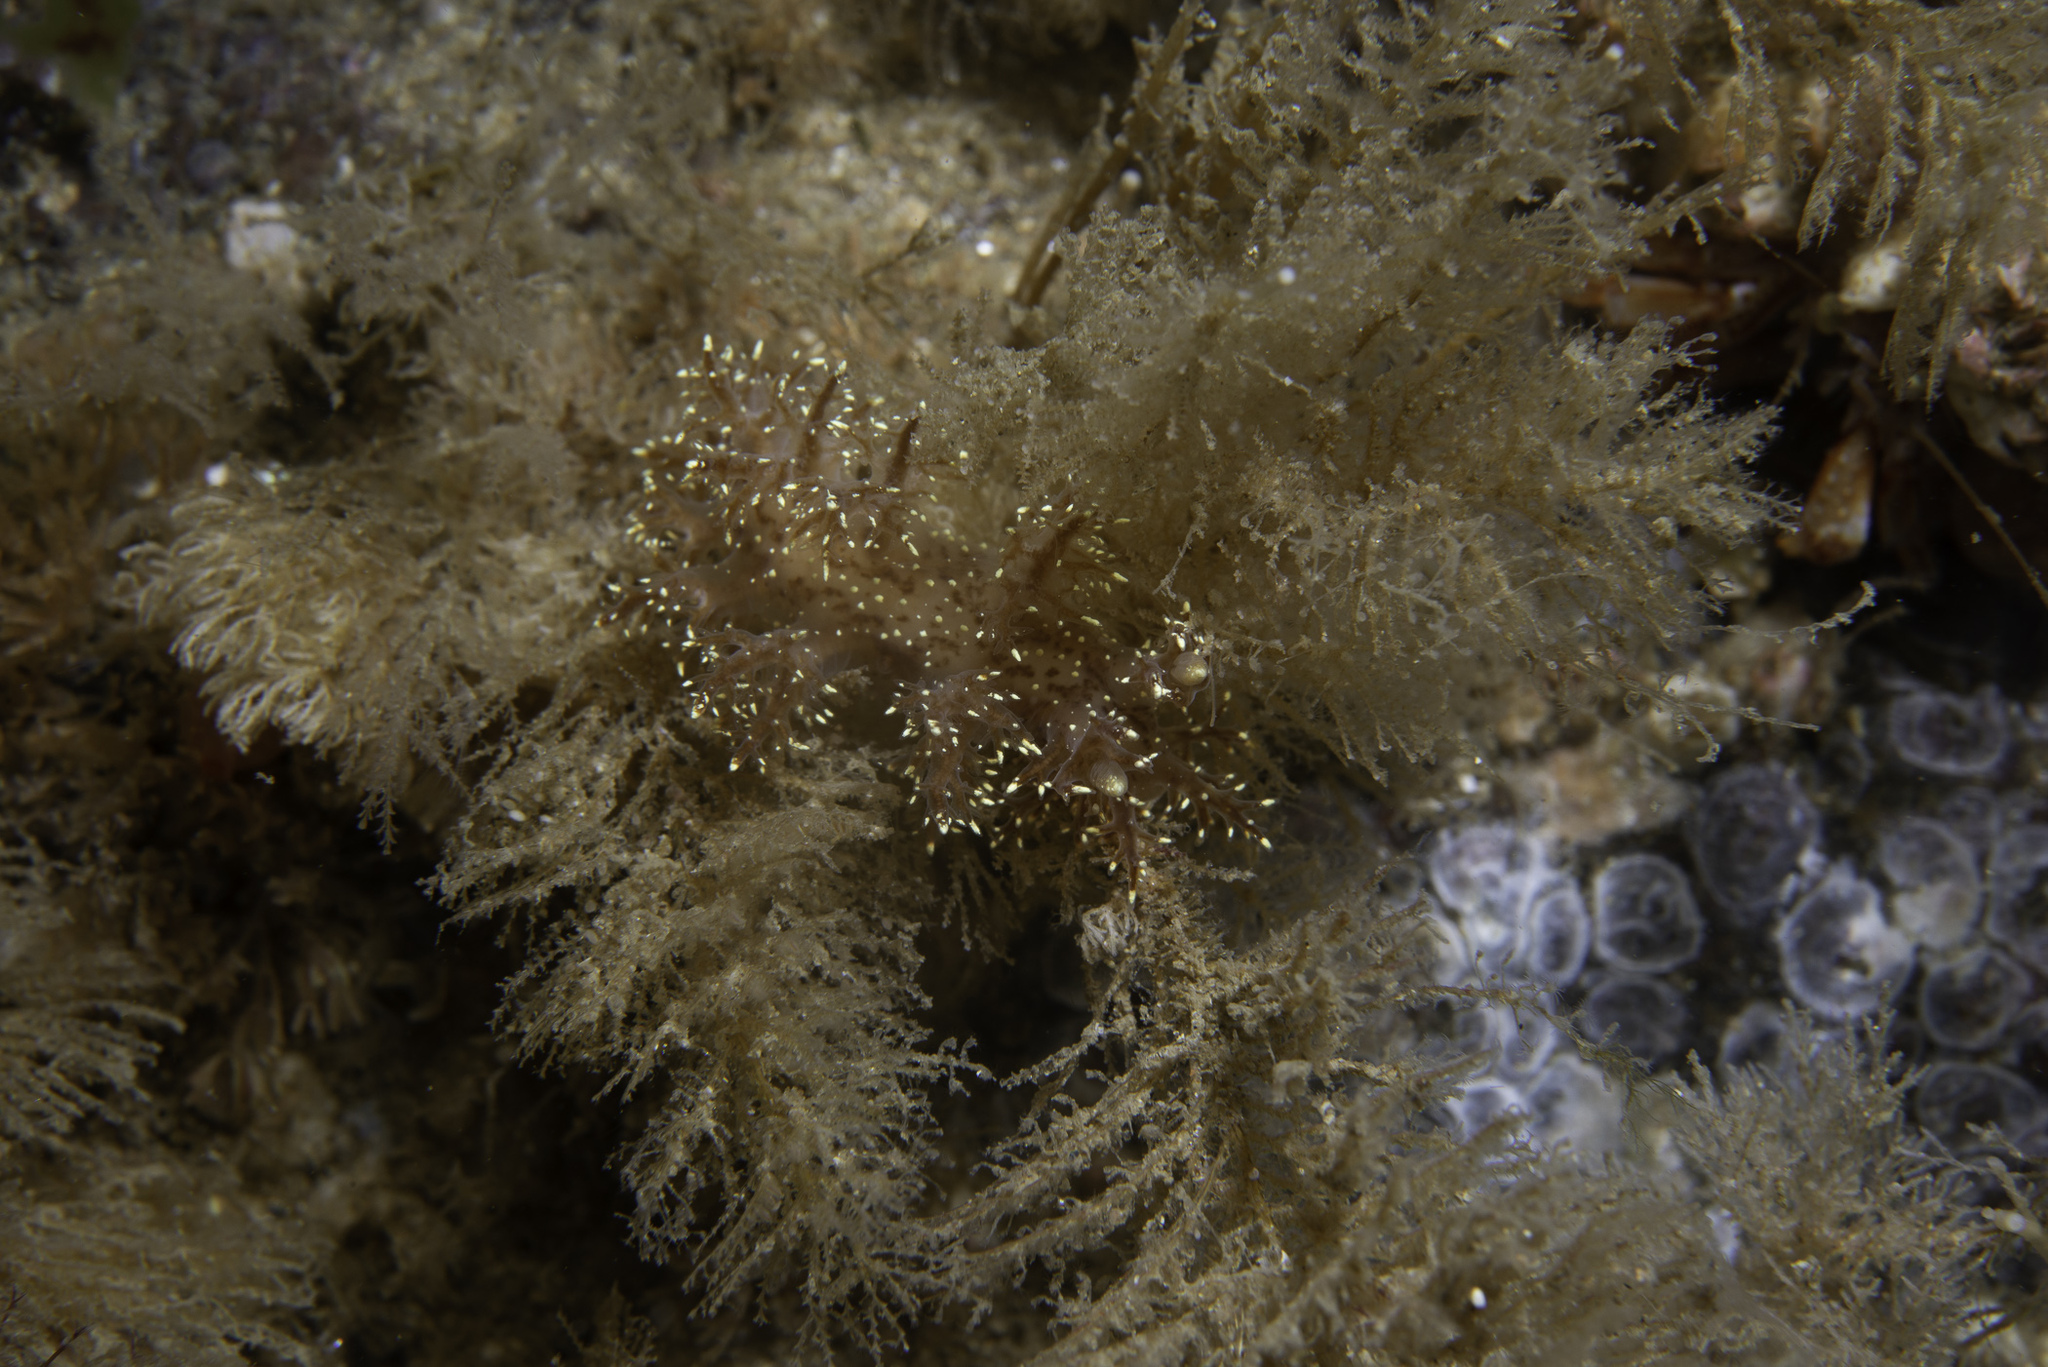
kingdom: Animalia
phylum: Mollusca
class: Gastropoda
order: Nudibranchia
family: Dendronotidae
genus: Dendronotus
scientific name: Dendronotus keatleyae
